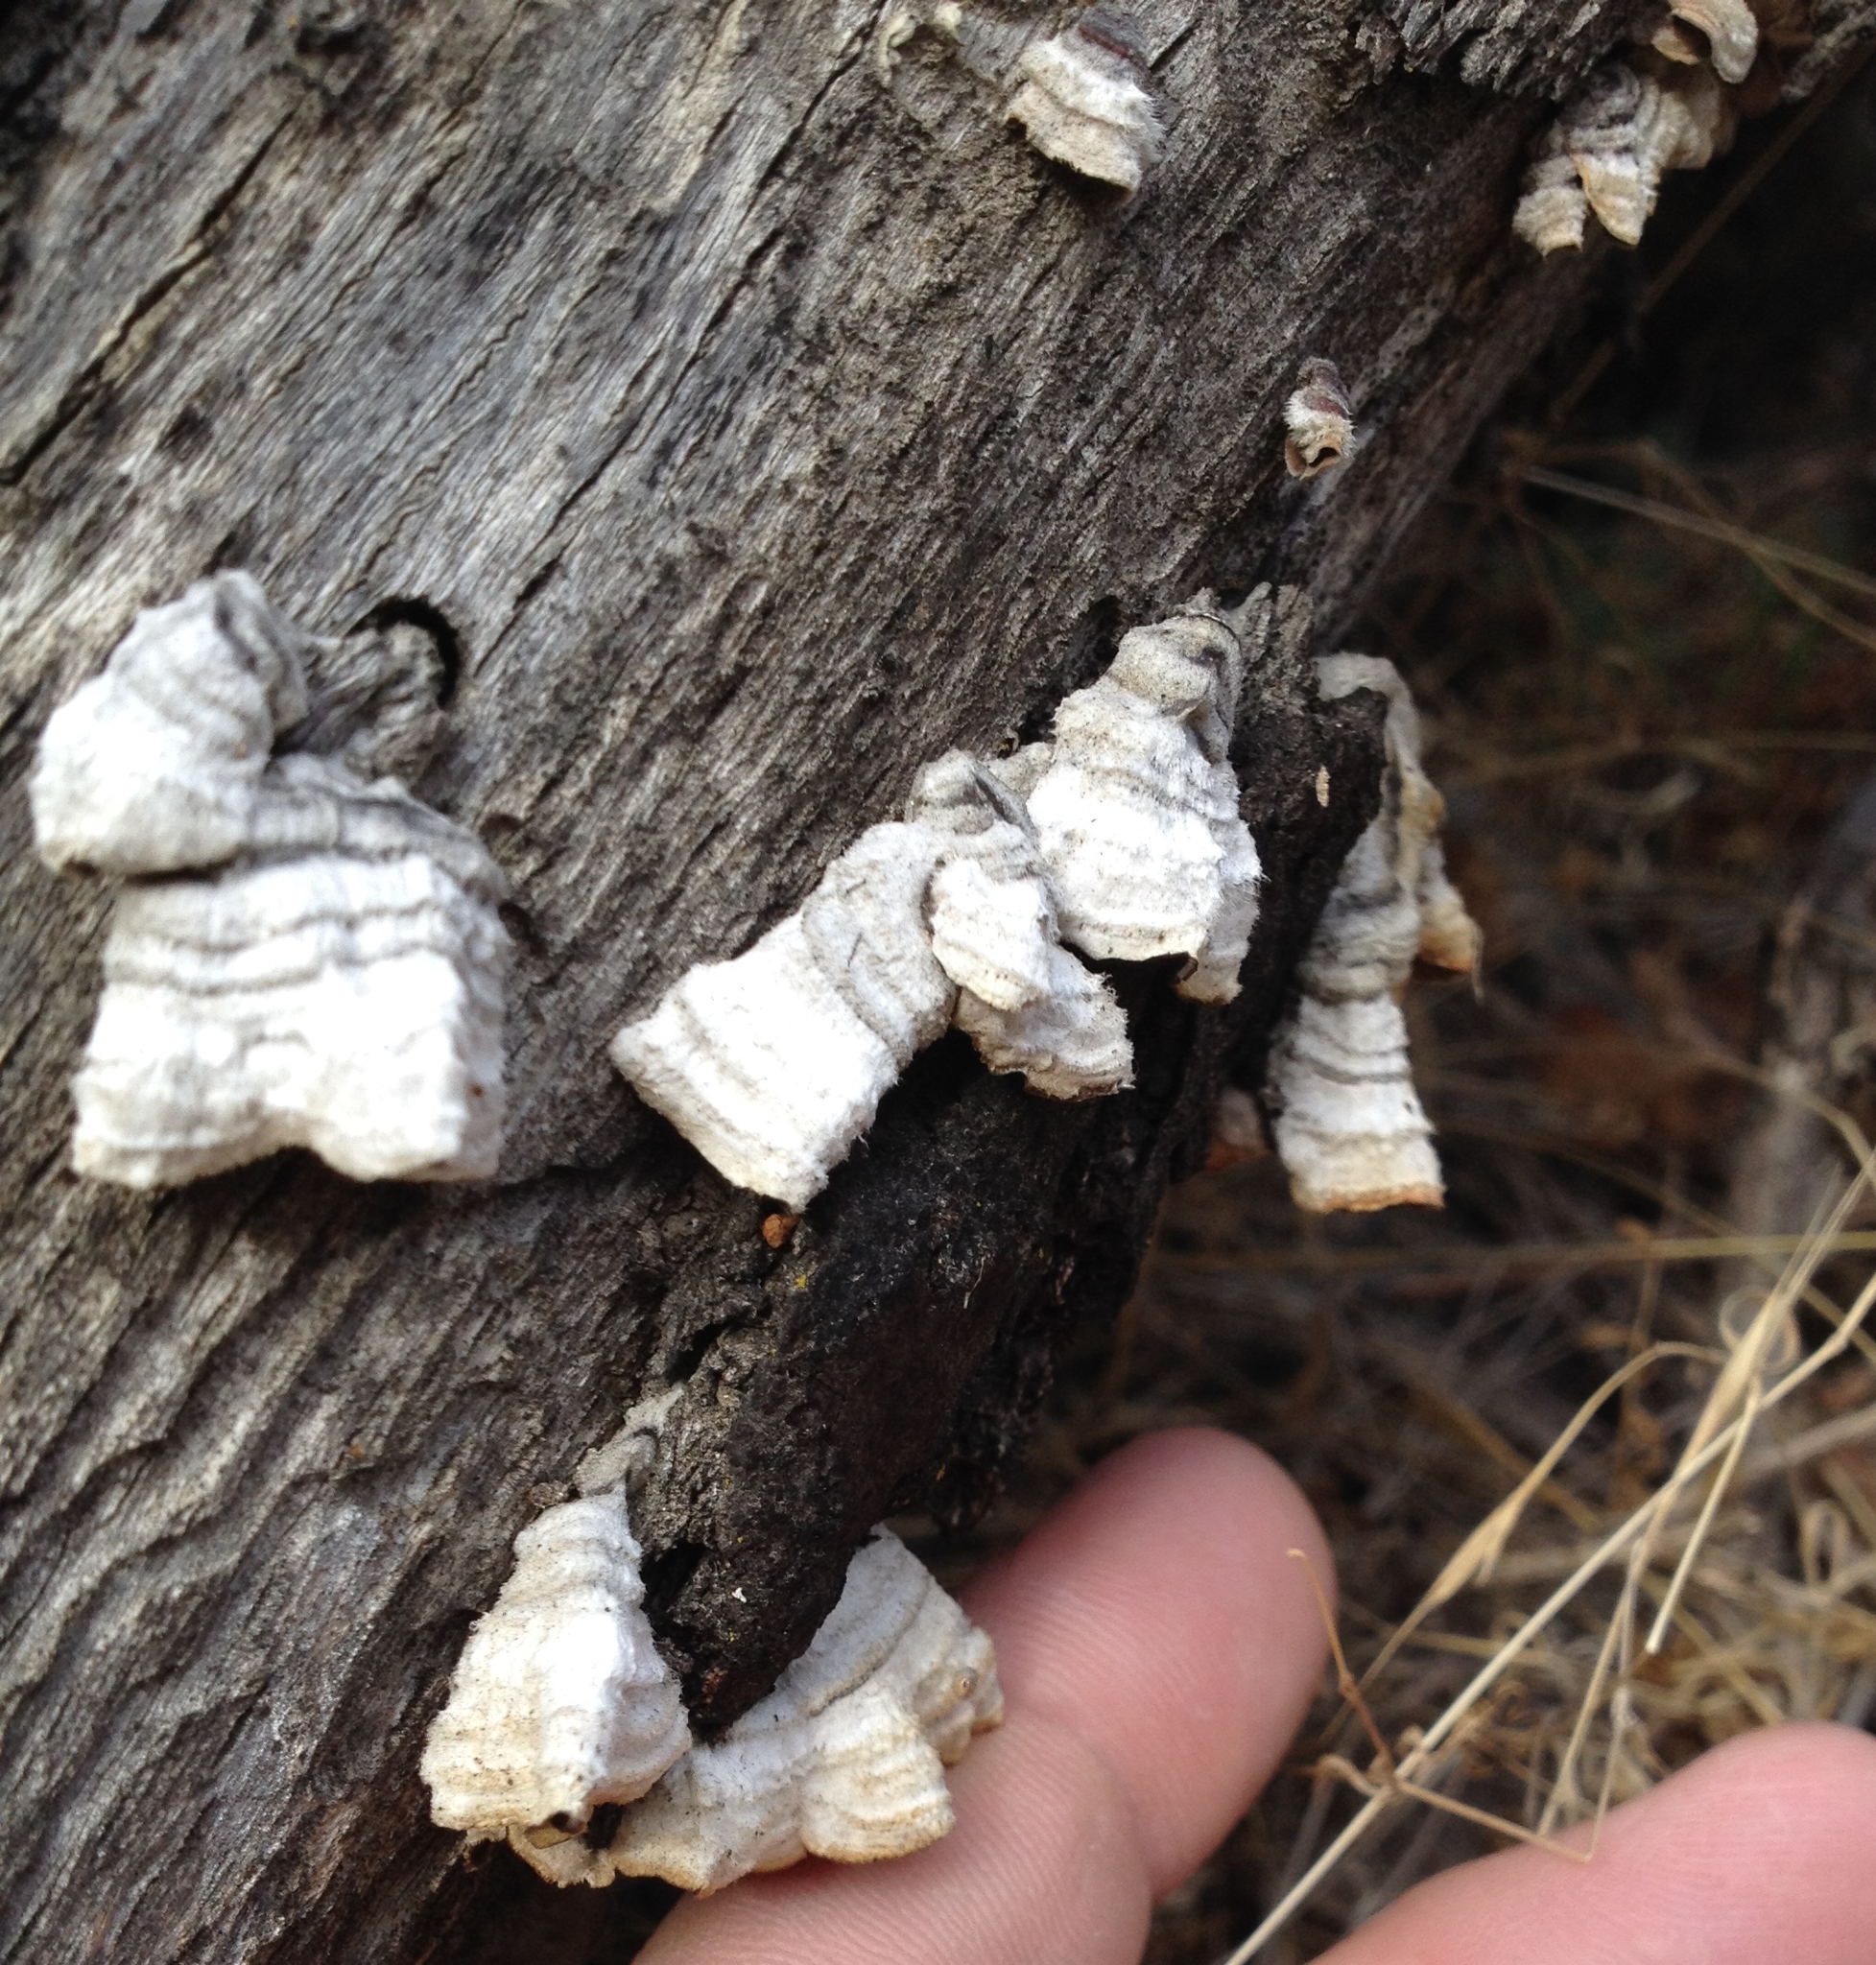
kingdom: Fungi
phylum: Basidiomycota
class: Agaricomycetes
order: Russulales
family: Stereaceae
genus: Stereum
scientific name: Stereum hirsutum
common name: Hairy curtain crust
